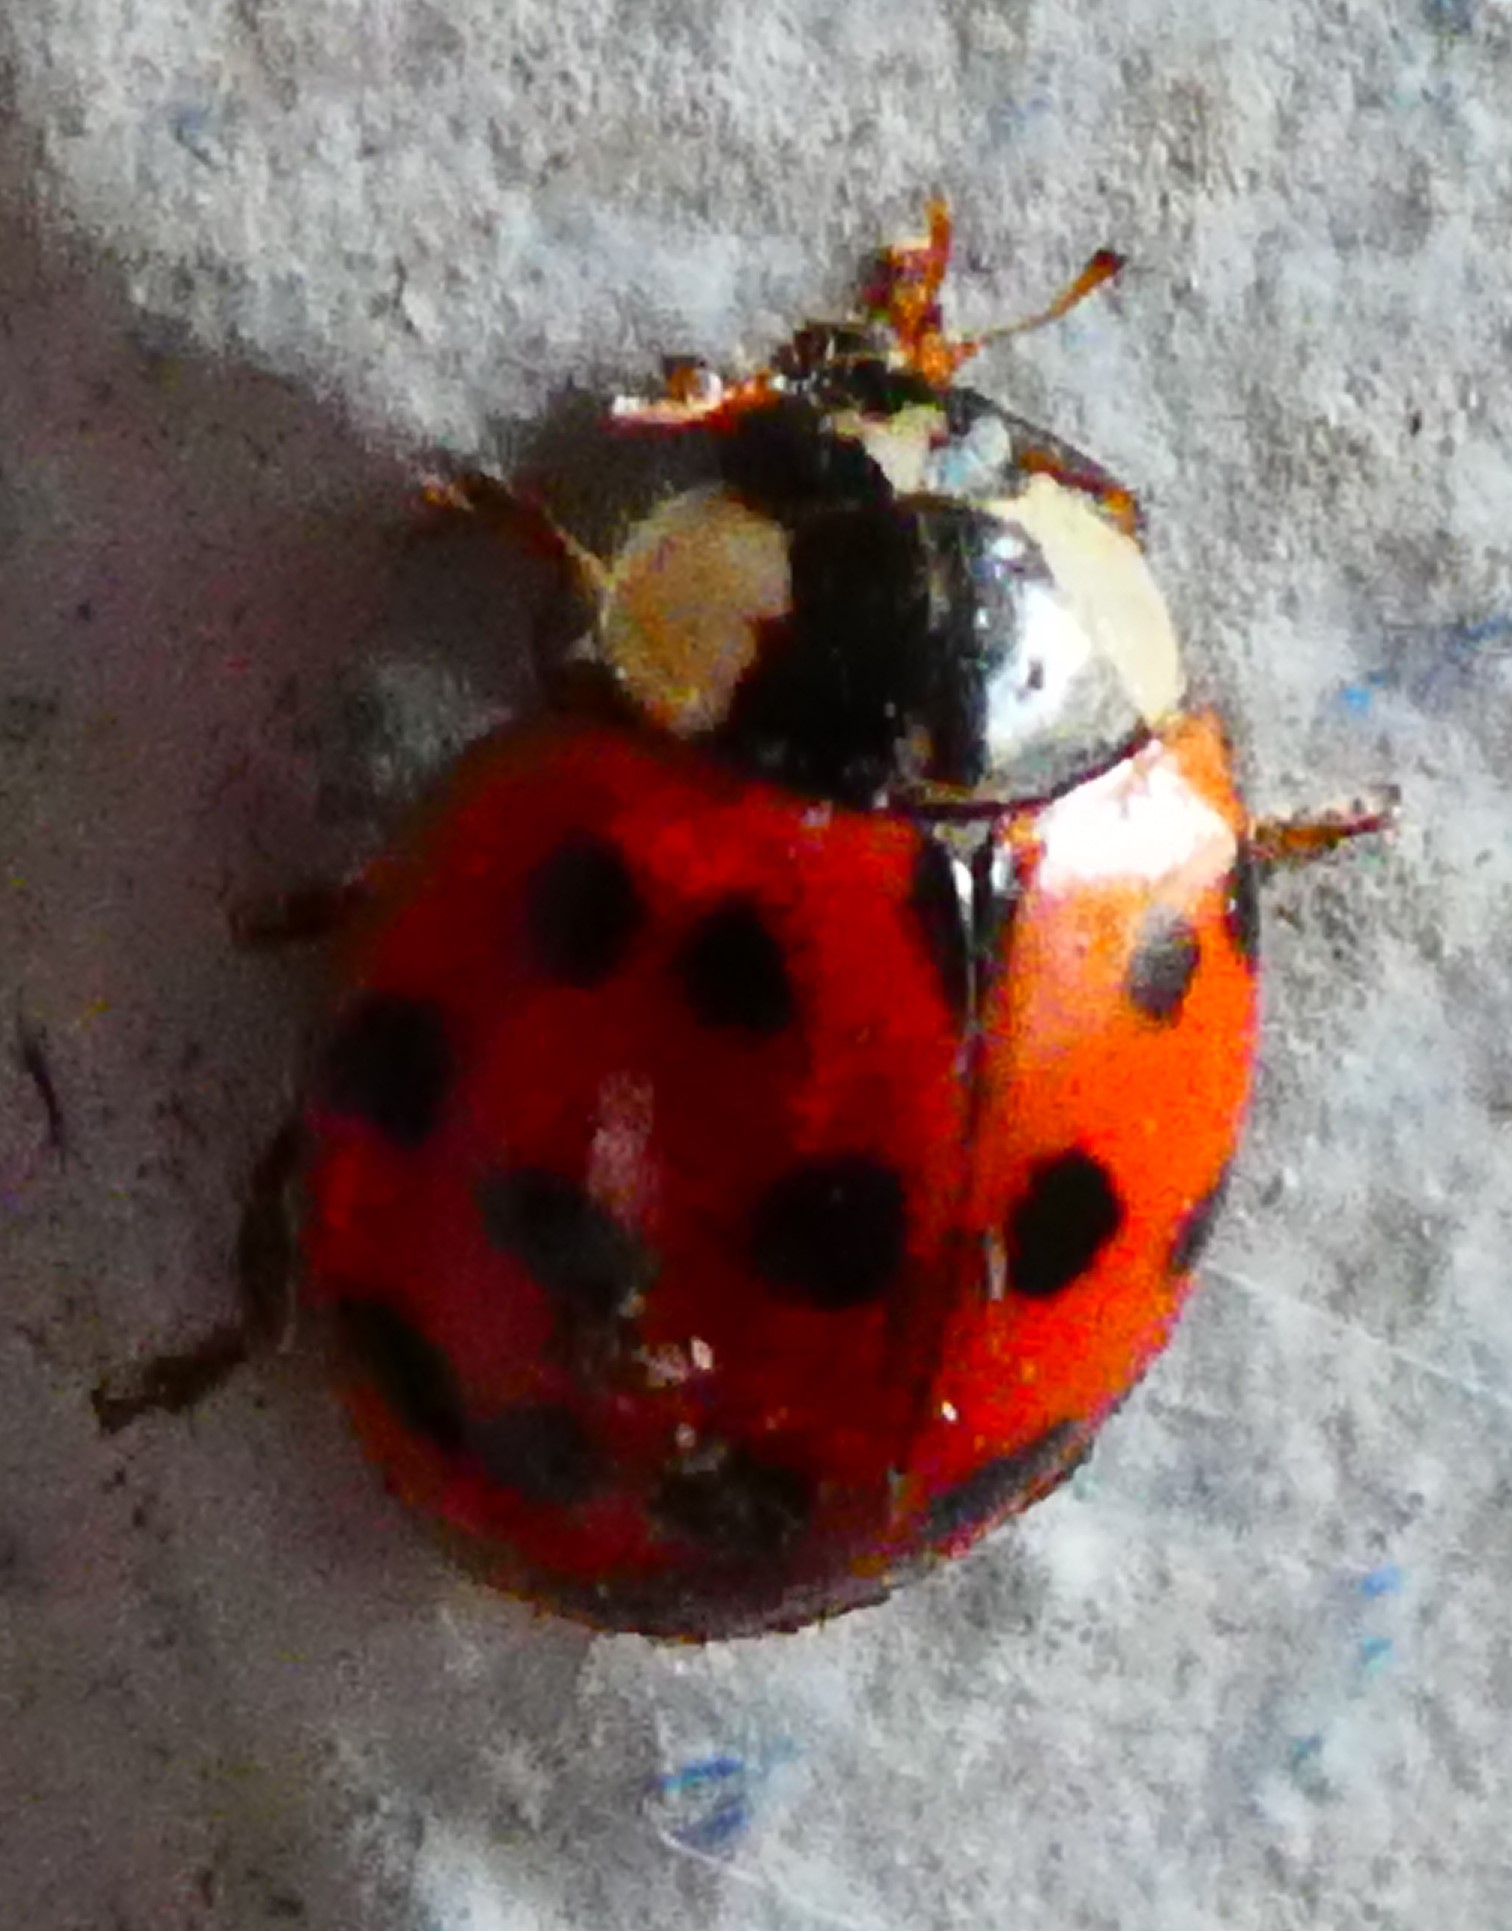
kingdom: Animalia
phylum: Arthropoda
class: Insecta
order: Coleoptera
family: Coccinellidae
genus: Harmonia
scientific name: Harmonia axyridis
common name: Harlequin ladybird
